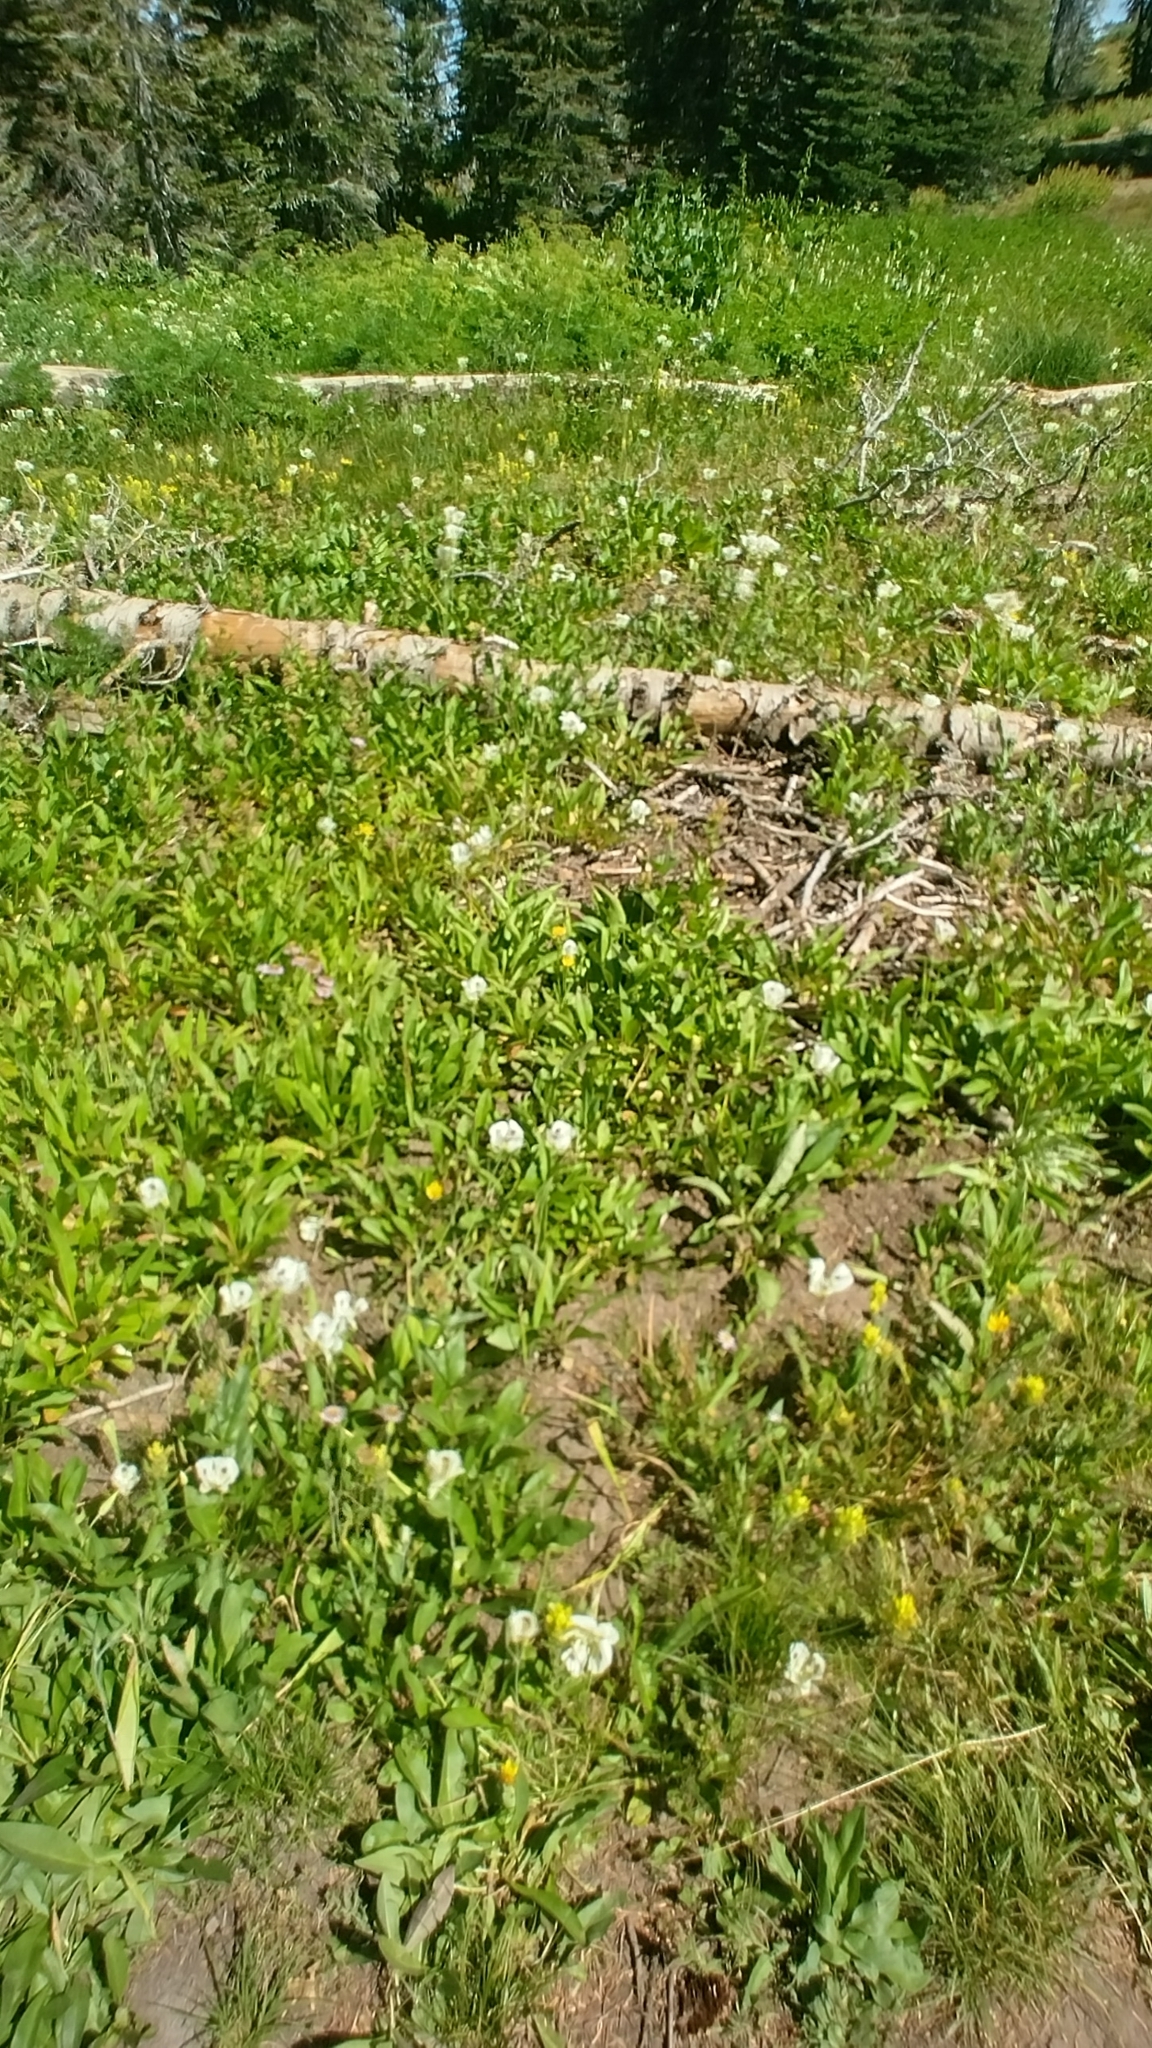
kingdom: Plantae
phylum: Tracheophyta
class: Liliopsida
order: Liliales
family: Liliaceae
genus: Calochortus
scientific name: Calochortus eurycarpus
